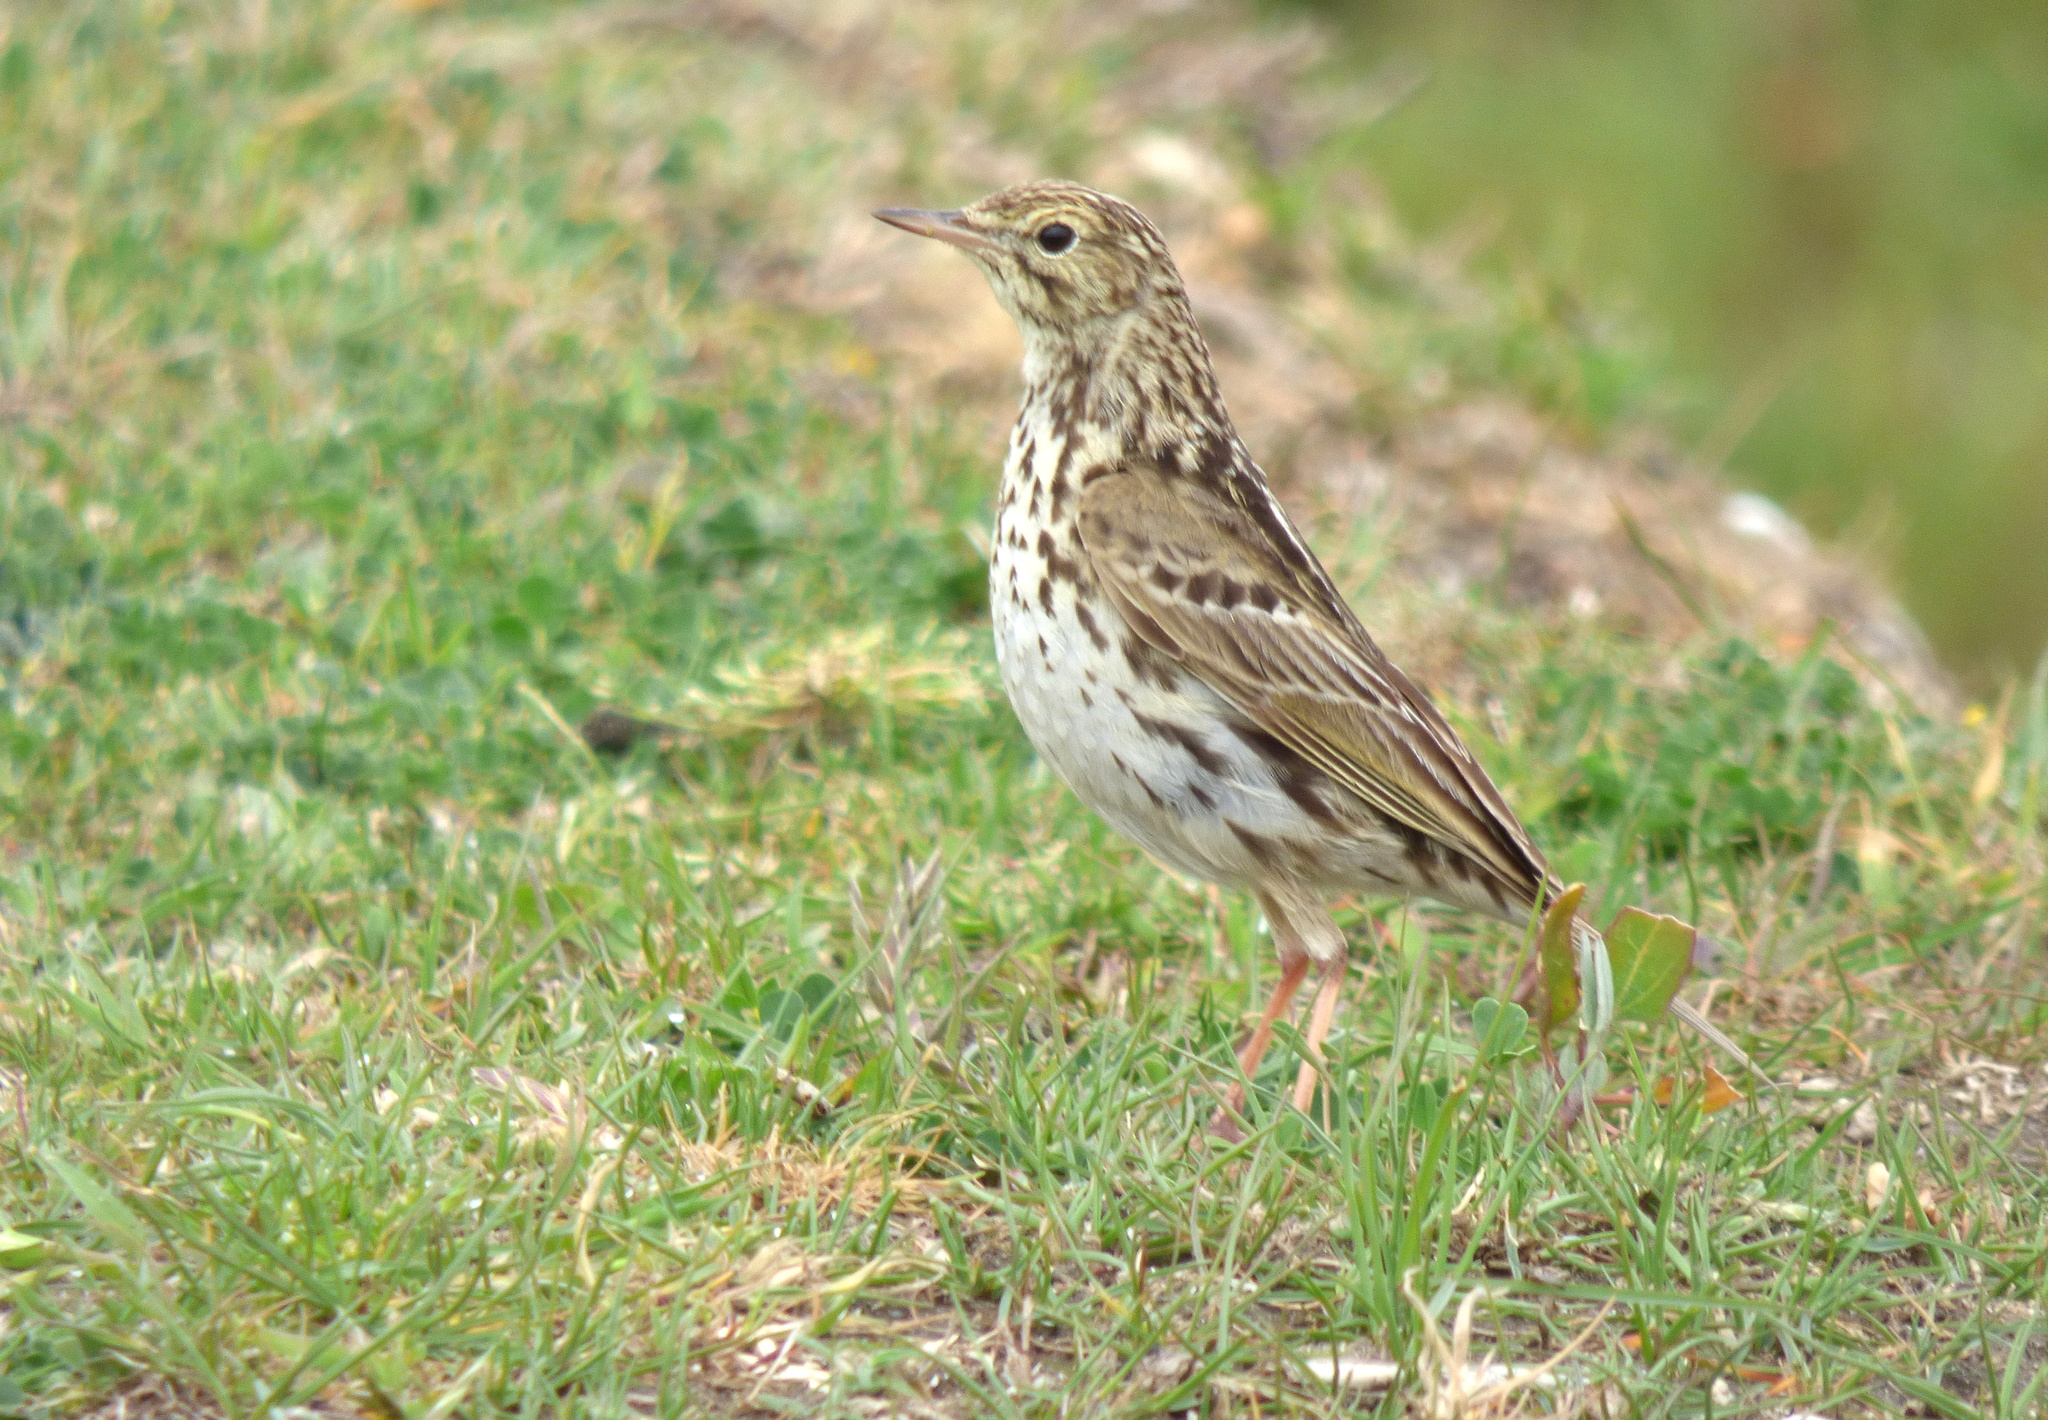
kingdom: Animalia
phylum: Chordata
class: Aves
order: Passeriformes
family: Motacillidae
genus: Anthus
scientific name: Anthus correndera
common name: Correndera pipit
